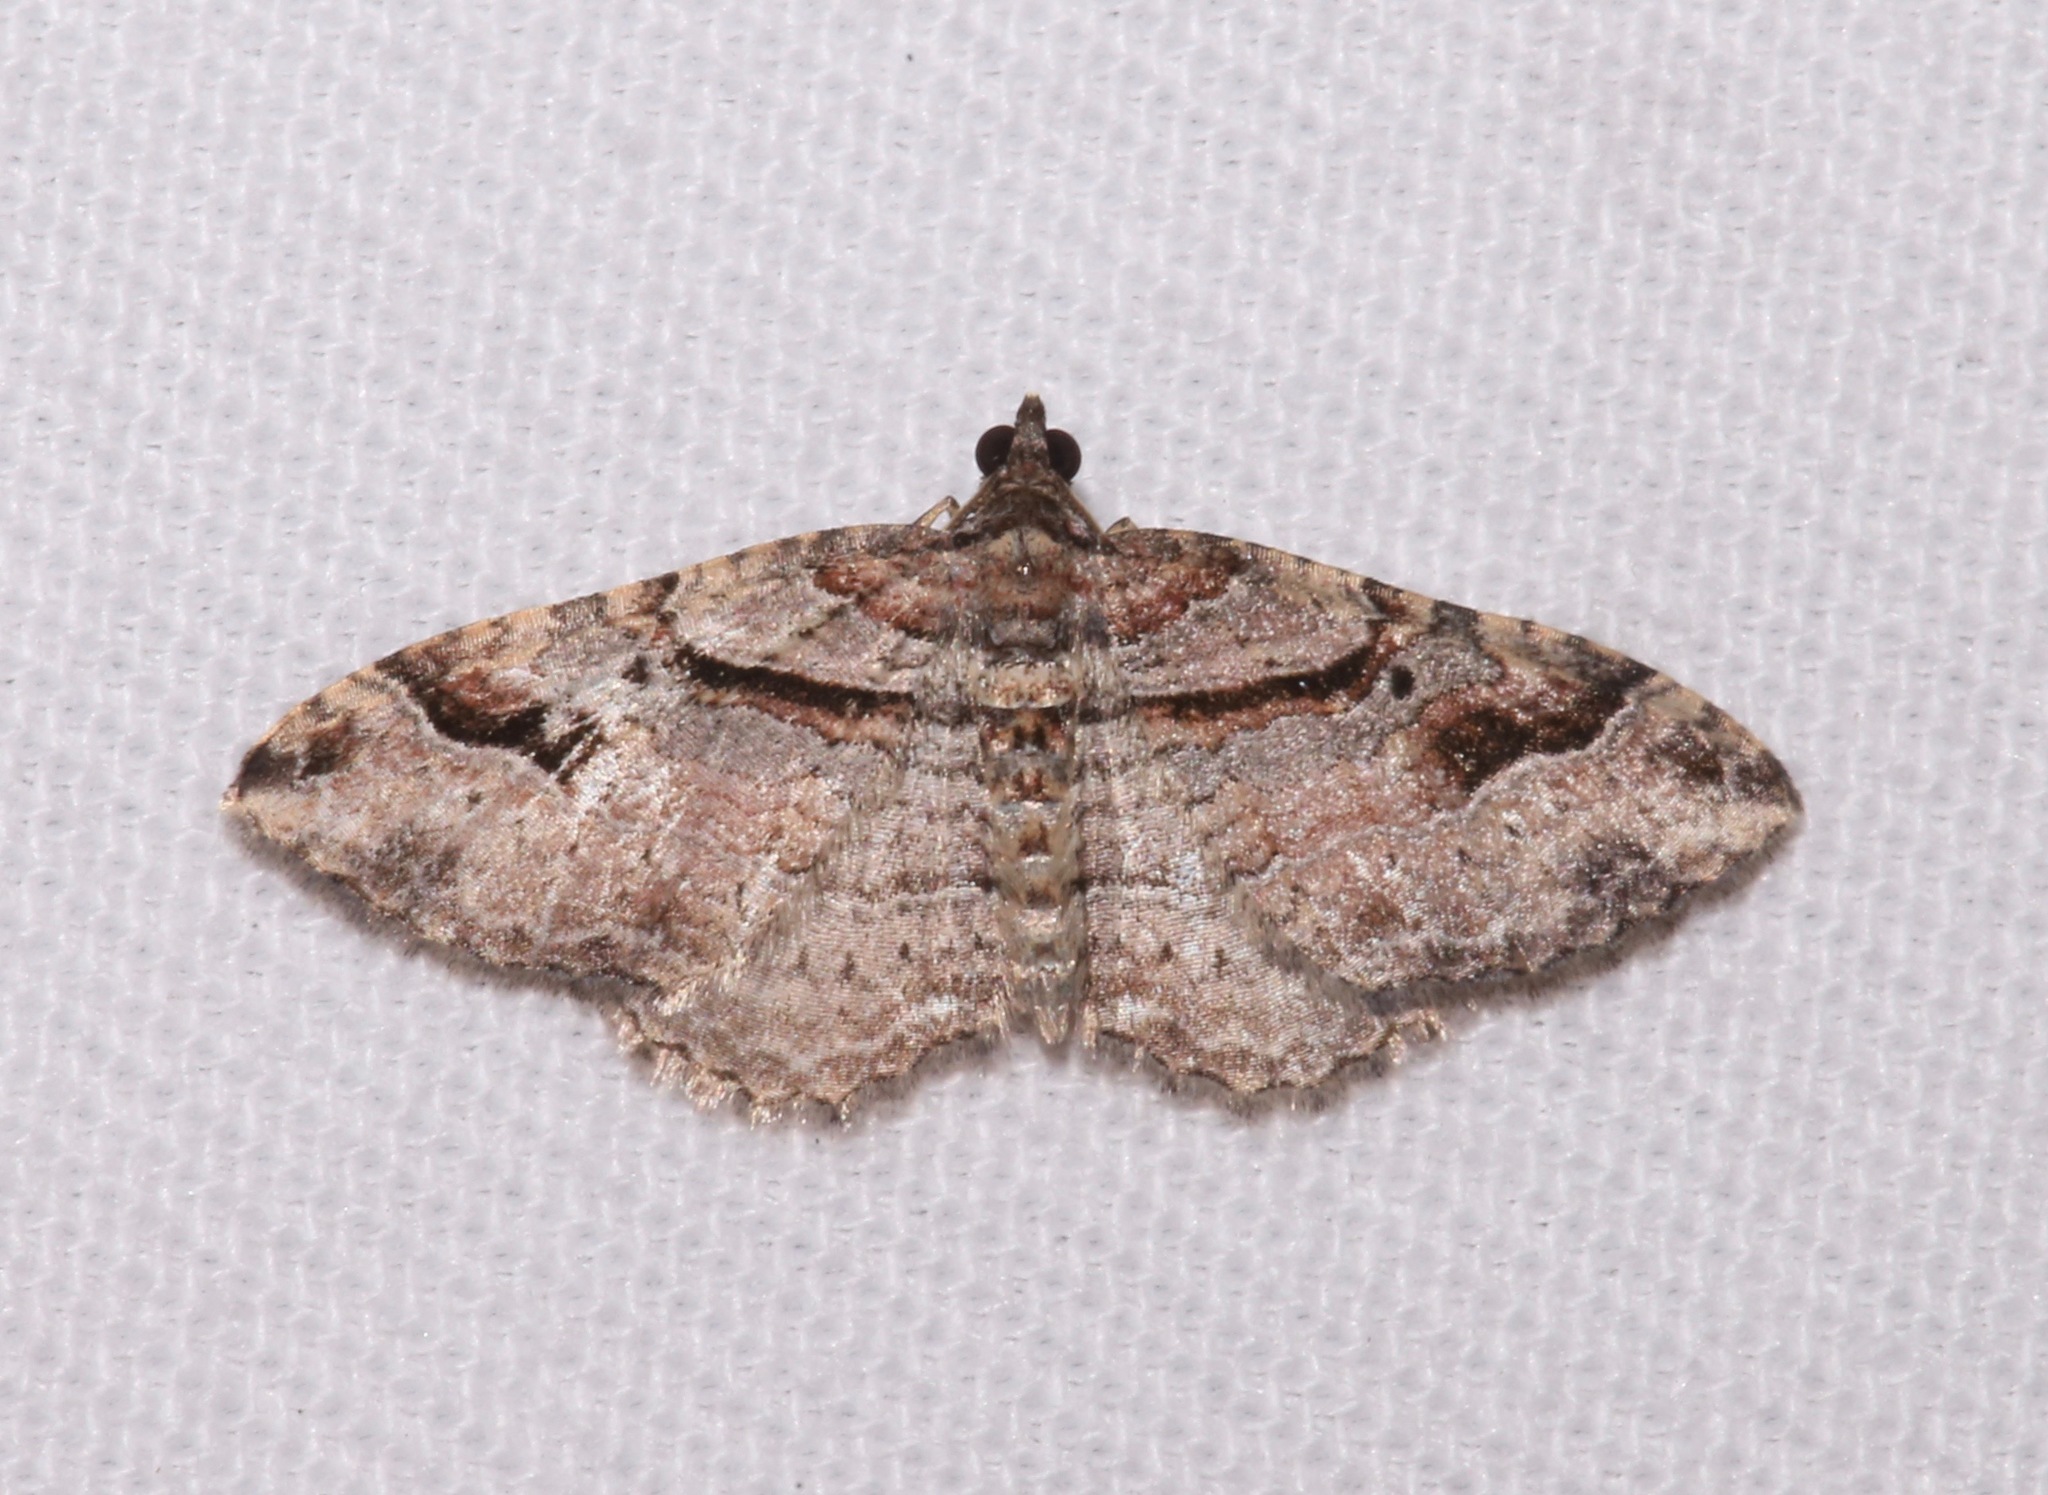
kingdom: Animalia
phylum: Arthropoda
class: Insecta
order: Lepidoptera
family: Geometridae
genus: Costaconvexa
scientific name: Costaconvexa centrostrigaria
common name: Bent-line carpet
